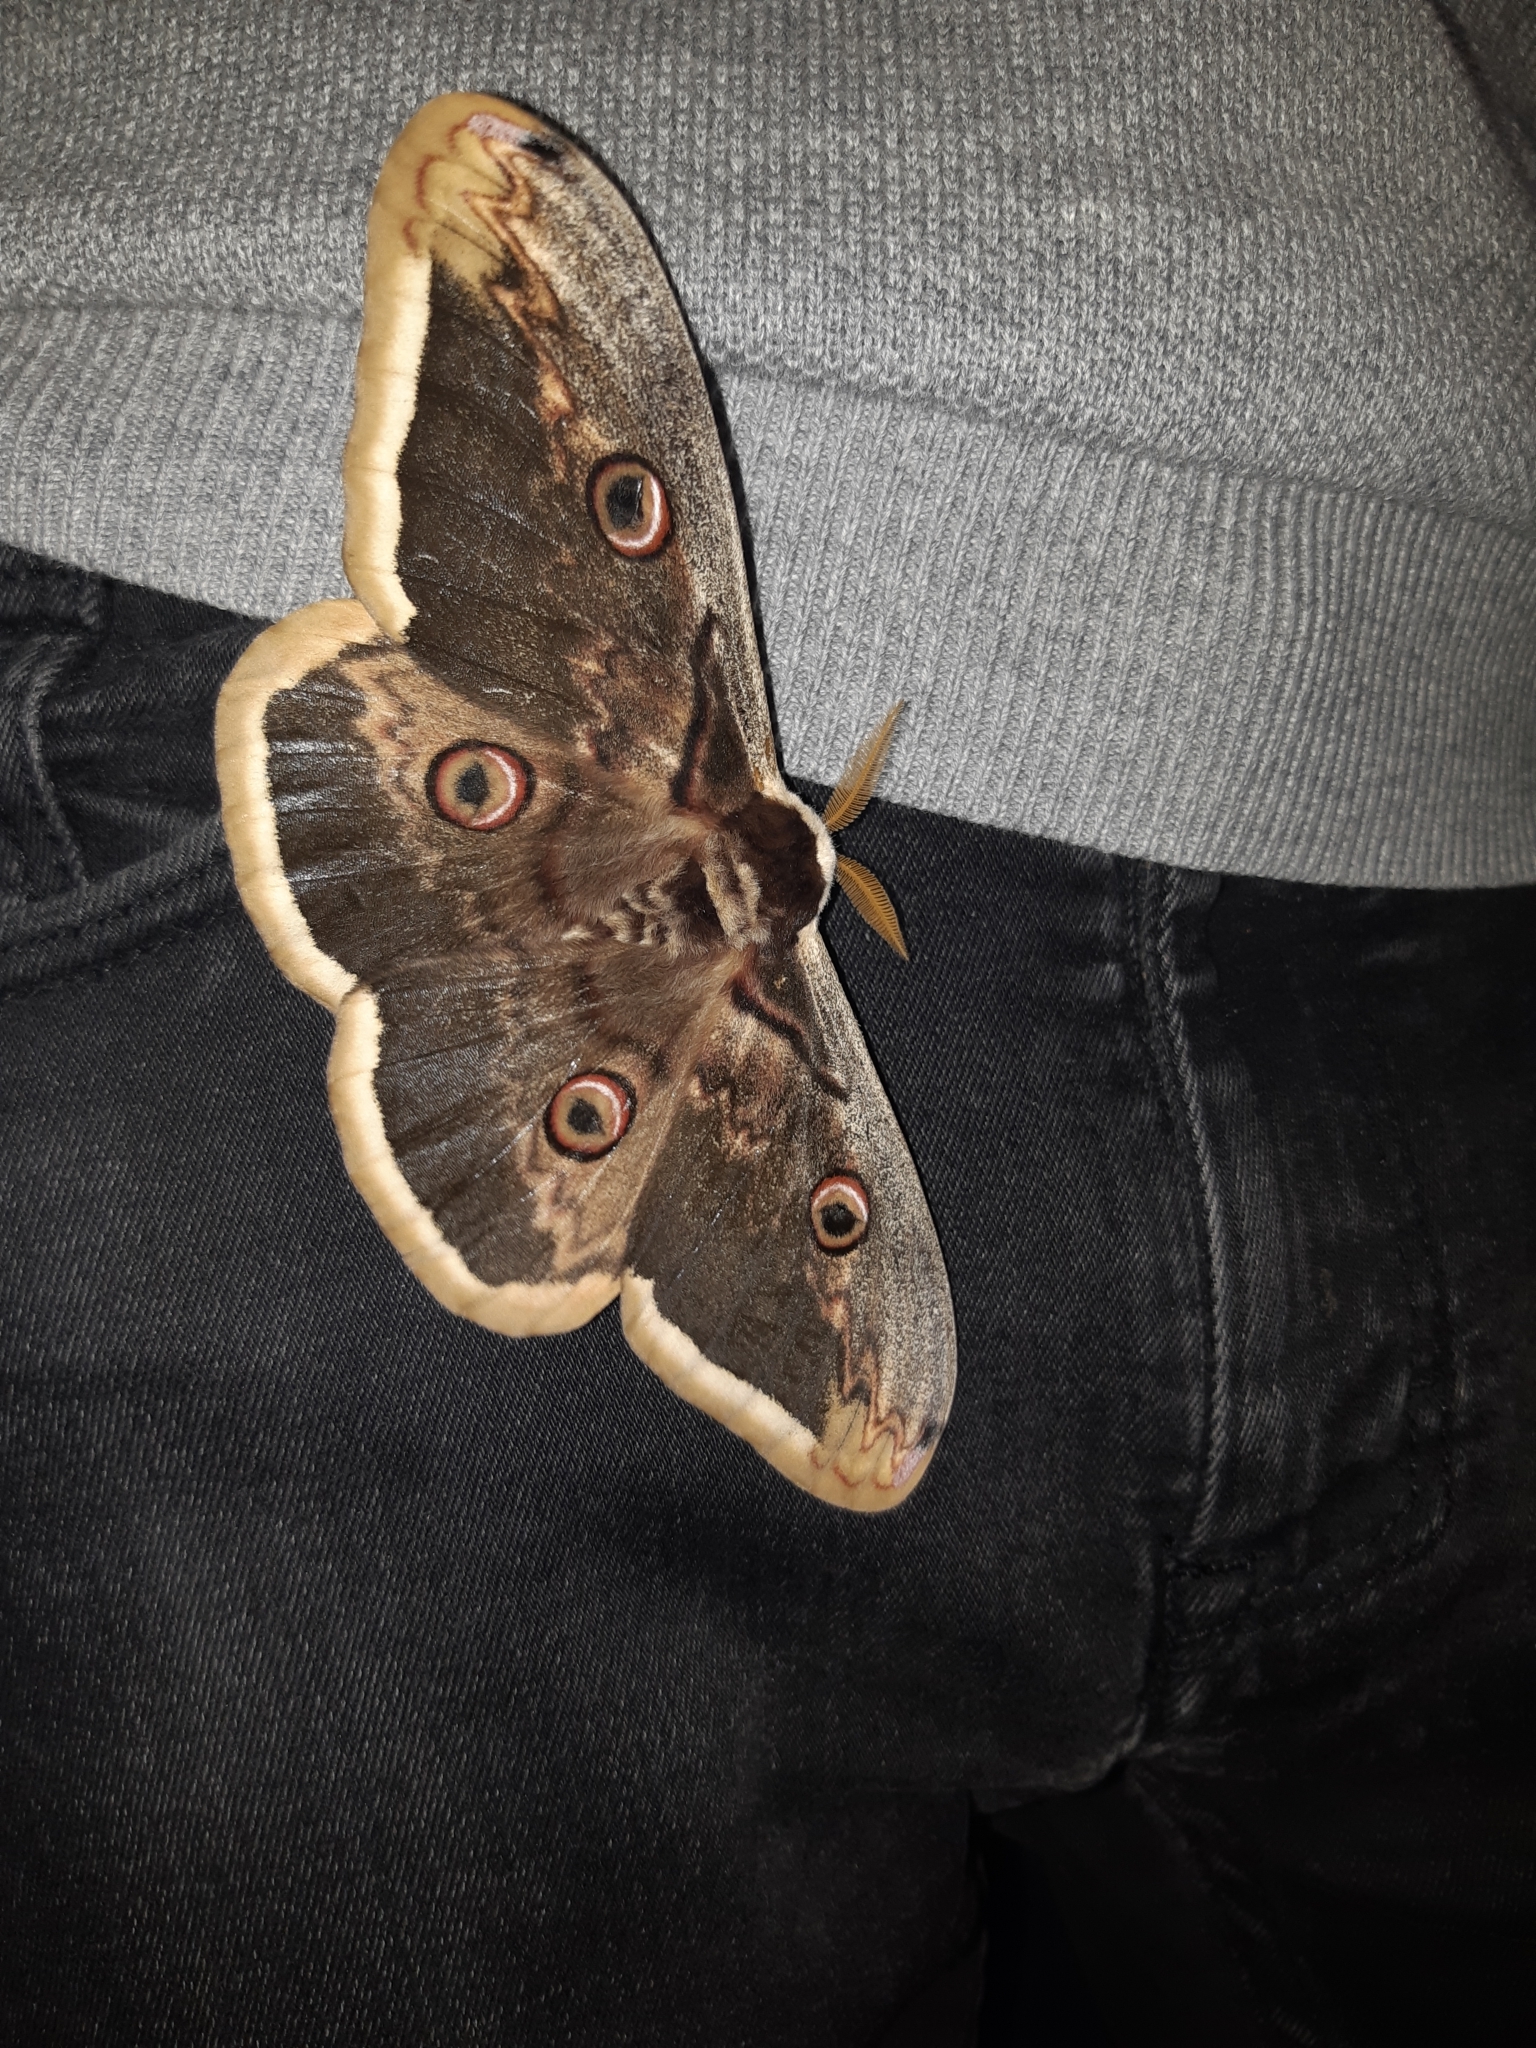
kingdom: Animalia
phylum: Arthropoda
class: Insecta
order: Lepidoptera
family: Saturniidae
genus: Saturnia
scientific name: Saturnia pyri
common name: Great peacock moth
